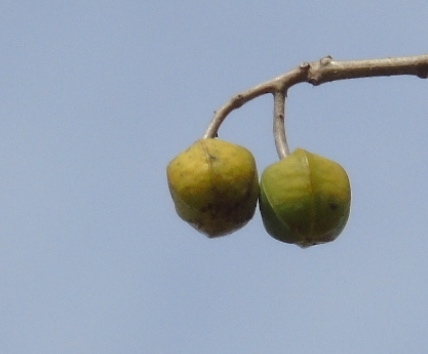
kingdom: Plantae
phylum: Tracheophyta
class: Magnoliopsida
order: Malpighiales
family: Euphorbiaceae
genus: Manihot
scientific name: Manihot angustiloba
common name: Desert mountain manihot
